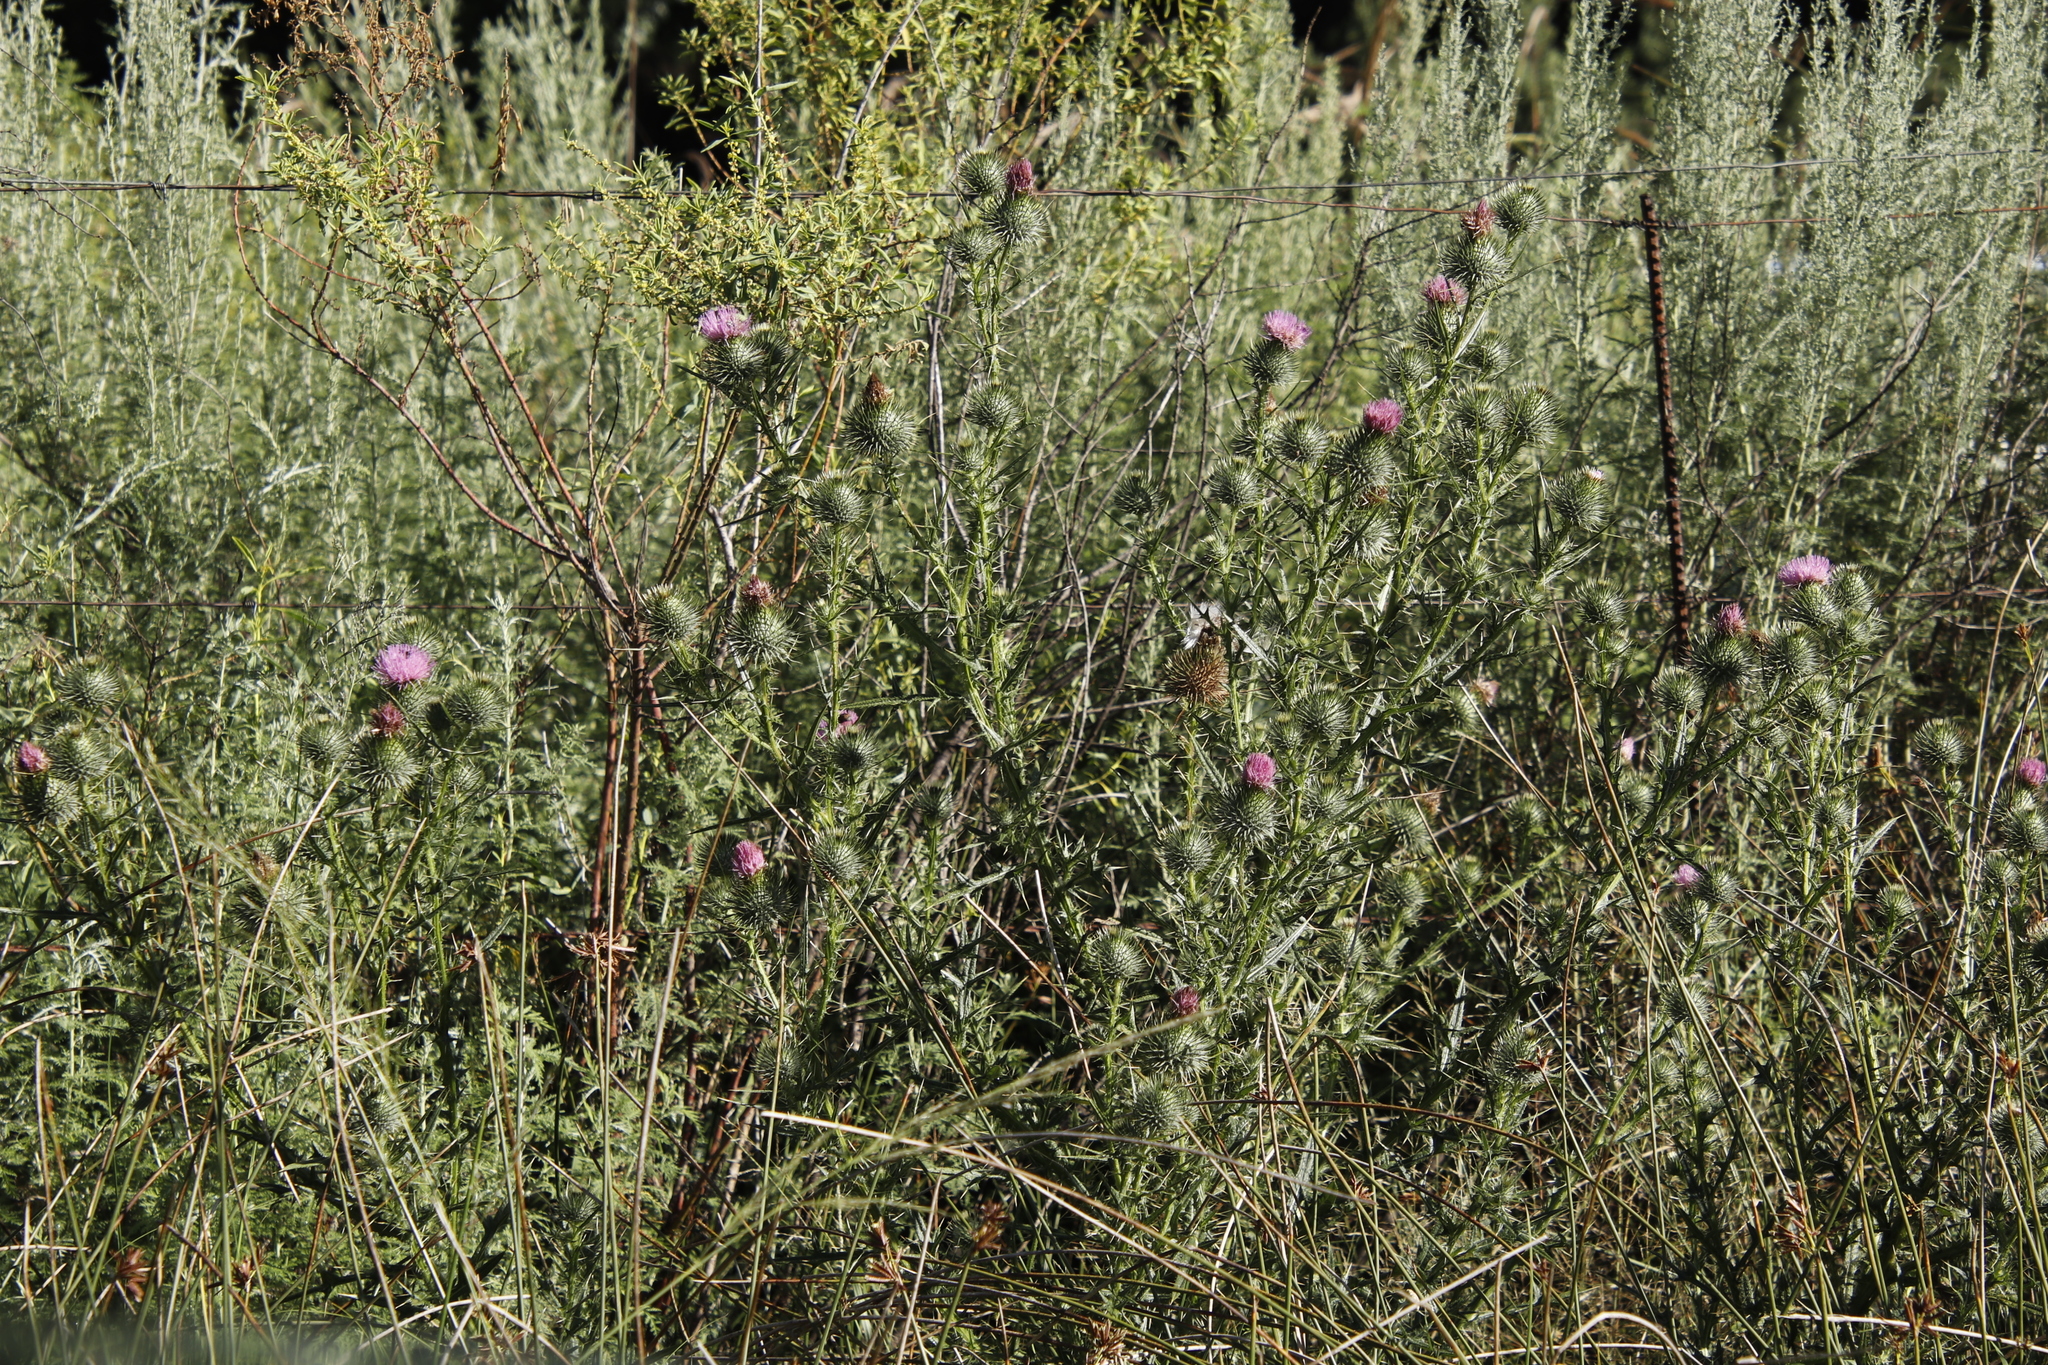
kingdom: Plantae
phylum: Tracheophyta
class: Magnoliopsida
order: Asterales
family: Asteraceae
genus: Cirsium
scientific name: Cirsium vulgare
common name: Bull thistle
